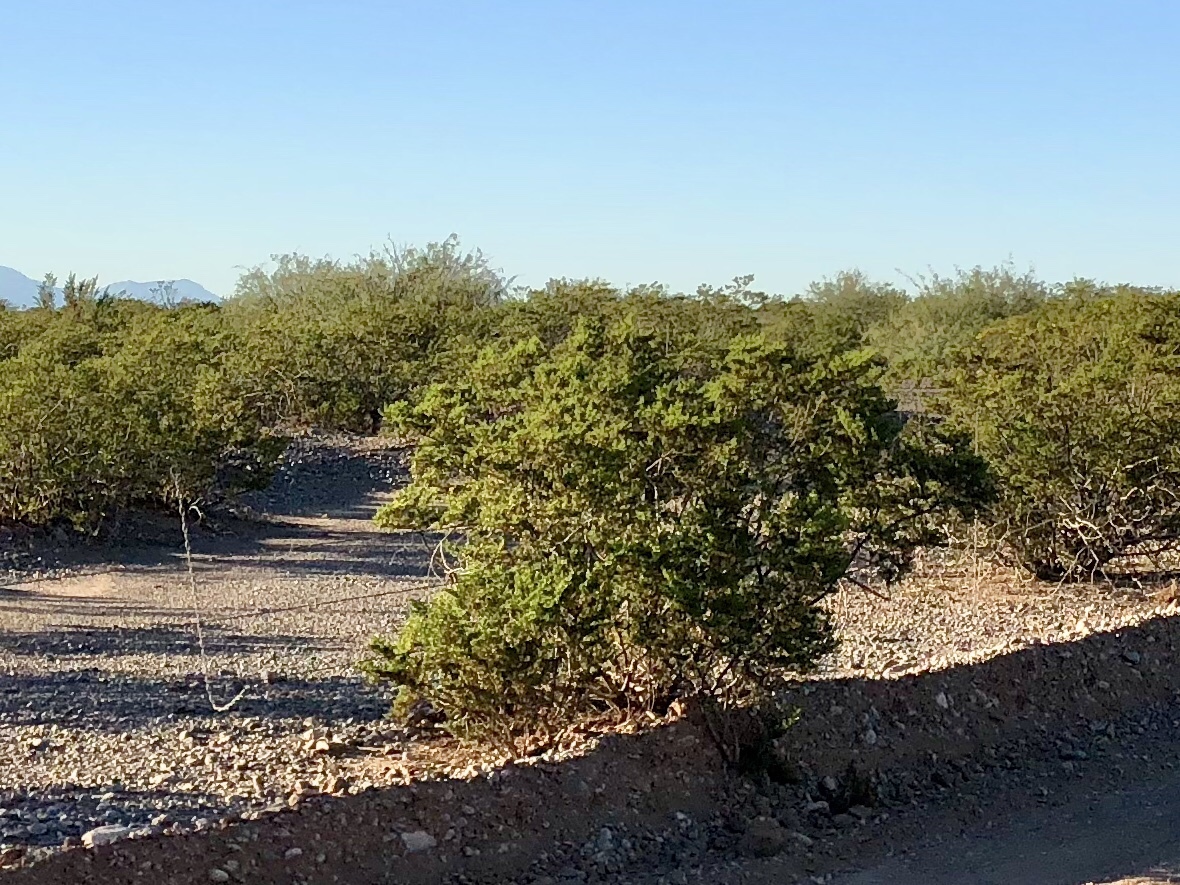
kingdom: Plantae
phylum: Tracheophyta
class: Magnoliopsida
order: Zygophyllales
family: Zygophyllaceae
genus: Larrea
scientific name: Larrea tridentata
